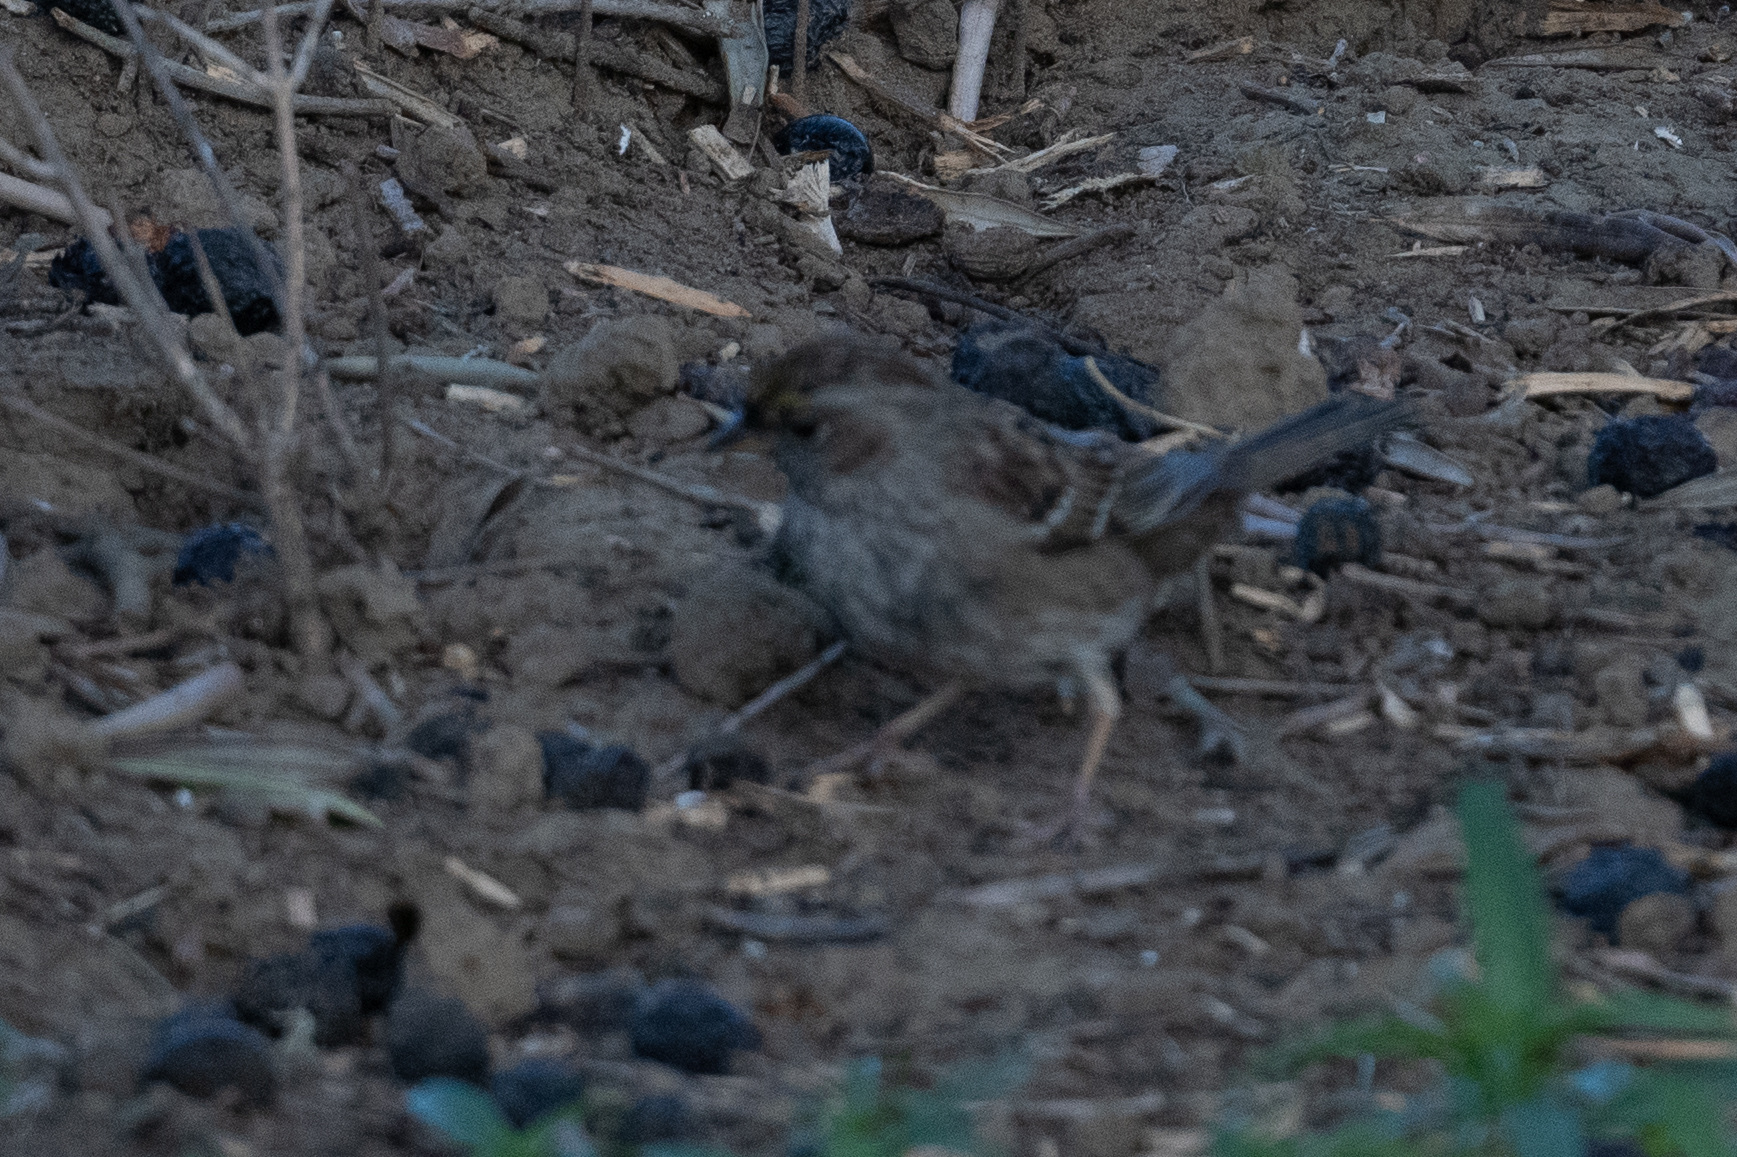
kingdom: Animalia
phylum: Chordata
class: Aves
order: Passeriformes
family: Passerellidae
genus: Zonotrichia
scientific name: Zonotrichia atricapilla
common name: Golden-crowned sparrow
